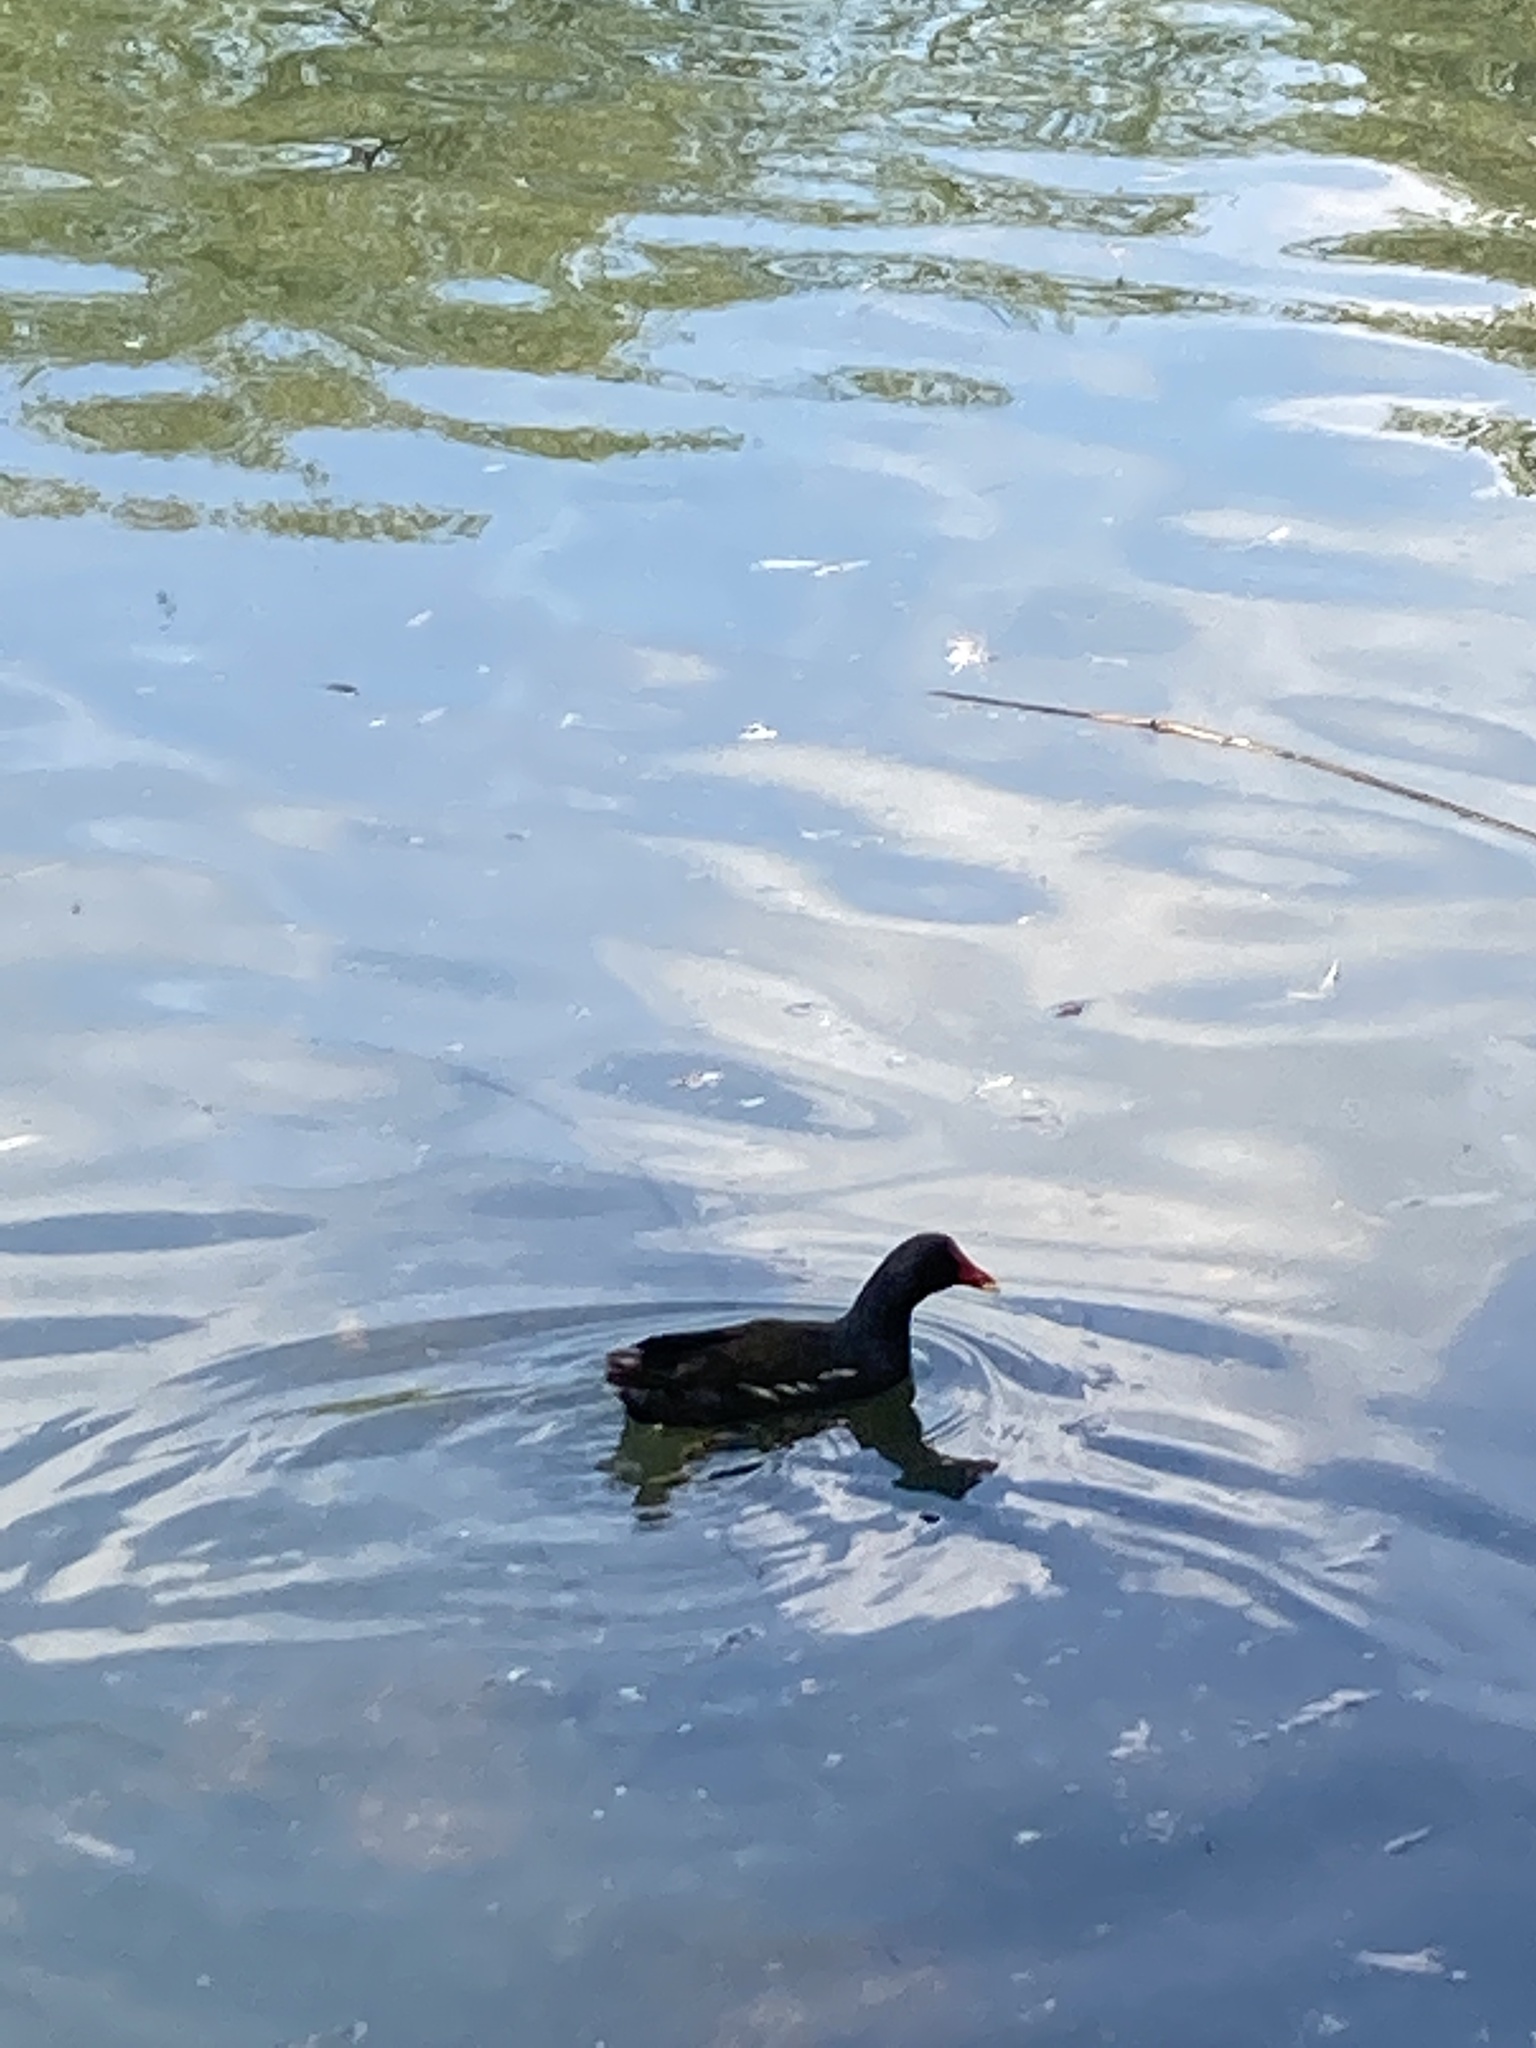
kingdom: Animalia
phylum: Chordata
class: Aves
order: Gruiformes
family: Rallidae
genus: Gallinula
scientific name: Gallinula chloropus
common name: Common moorhen
